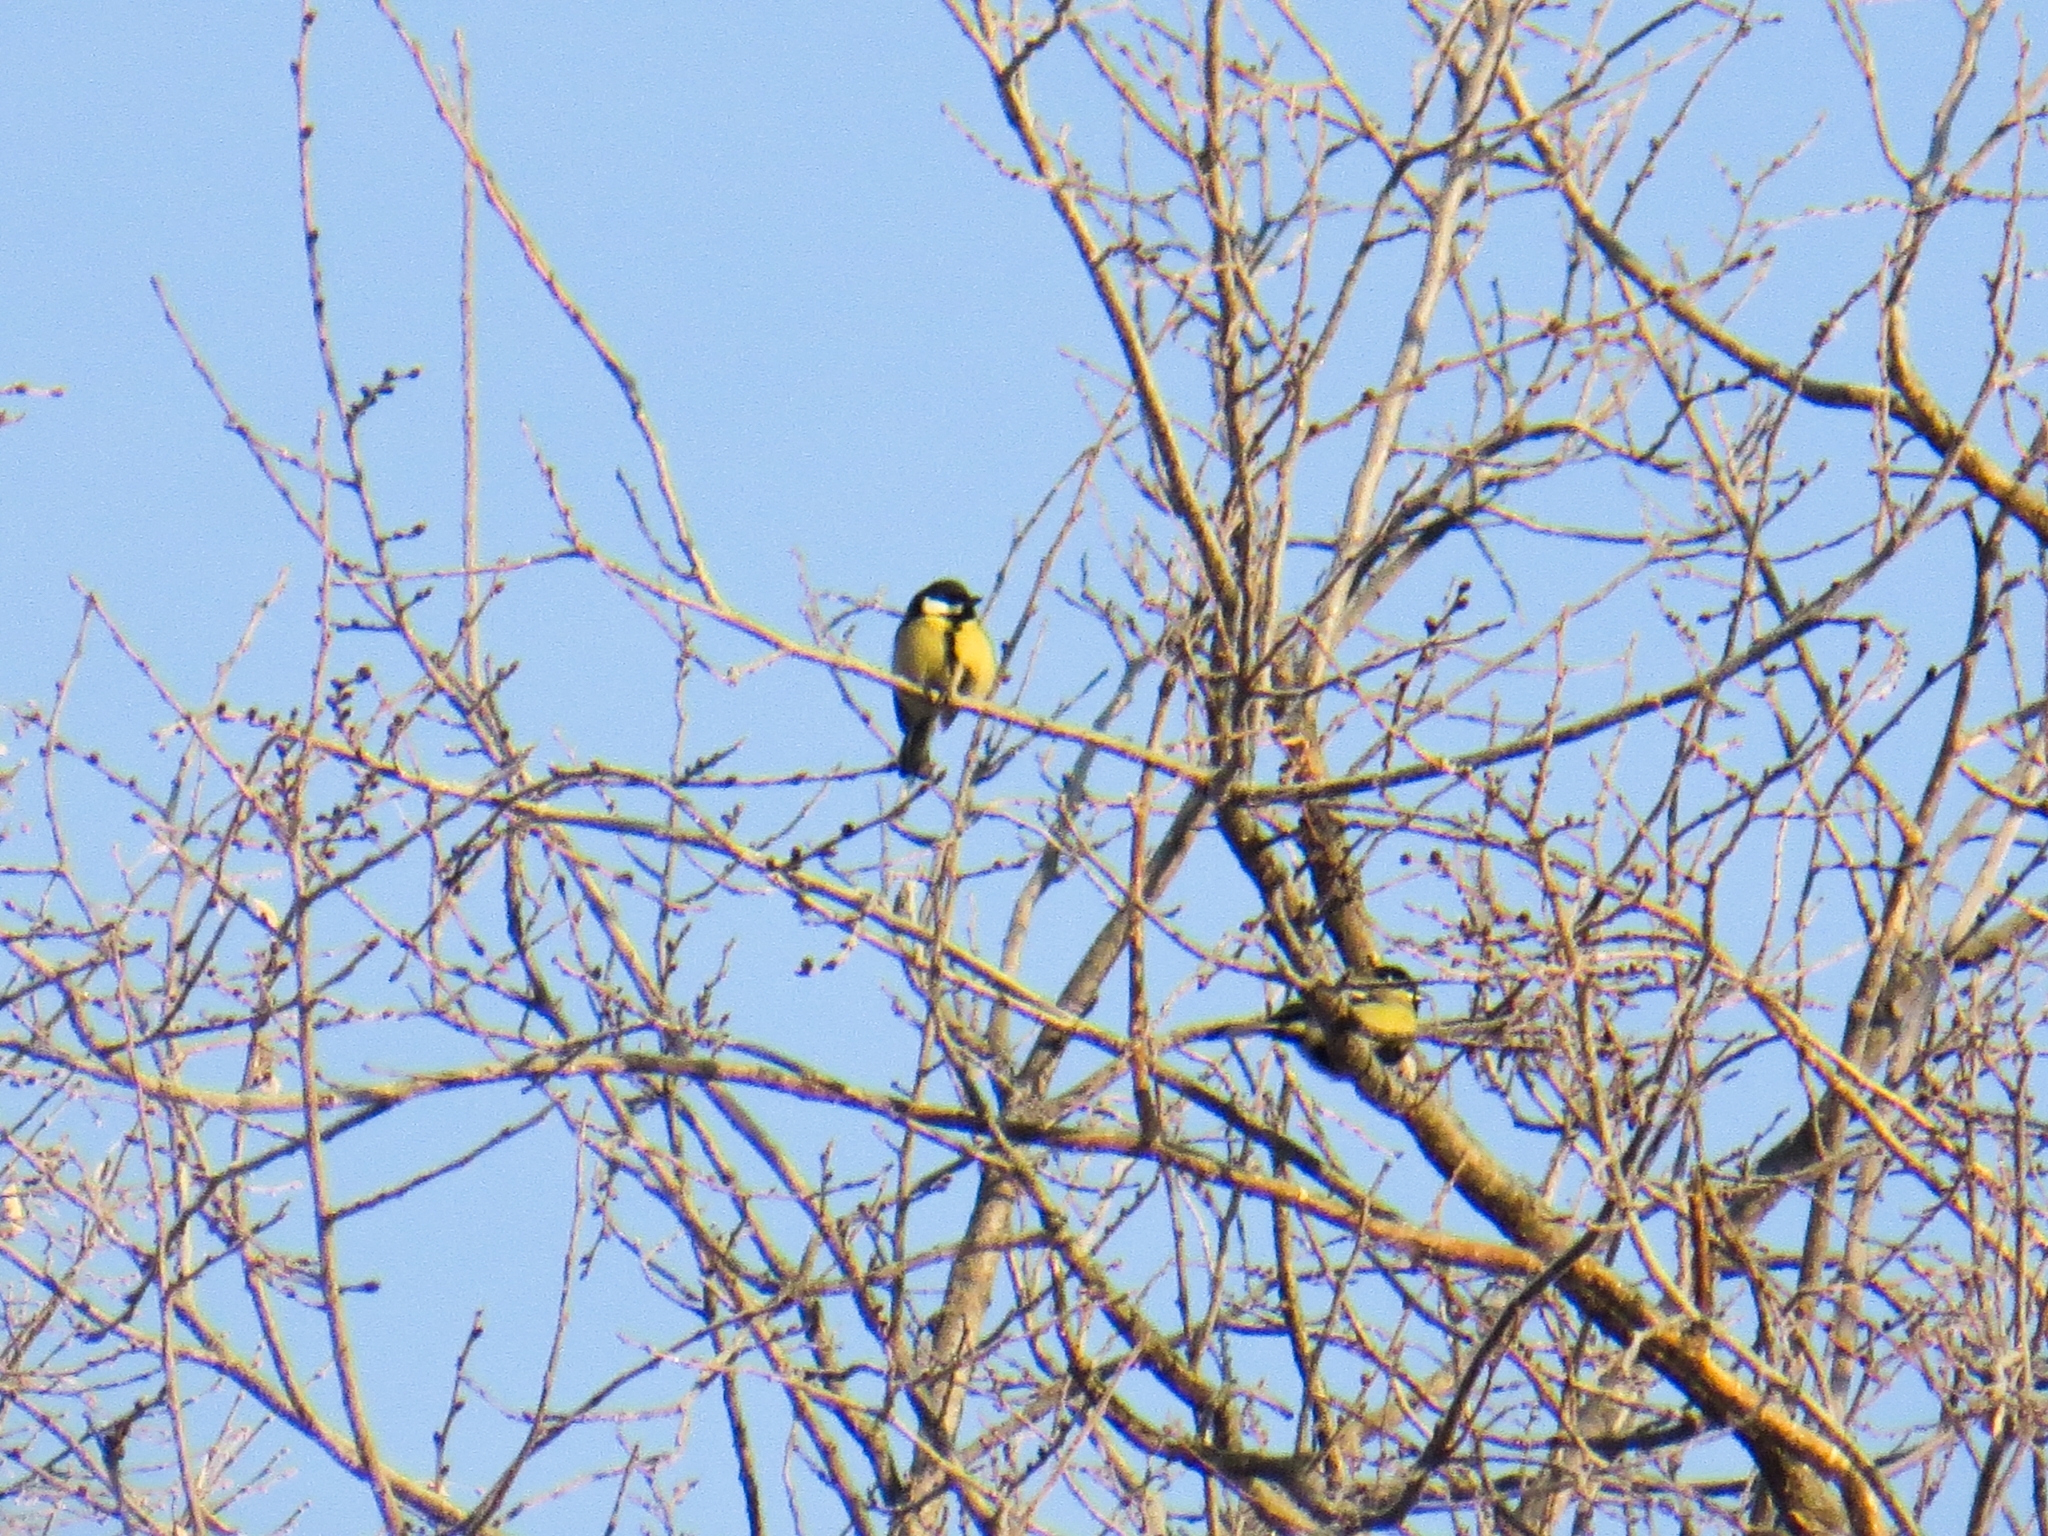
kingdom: Animalia
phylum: Chordata
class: Aves
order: Passeriformes
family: Paridae
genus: Parus
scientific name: Parus major
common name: Great tit
